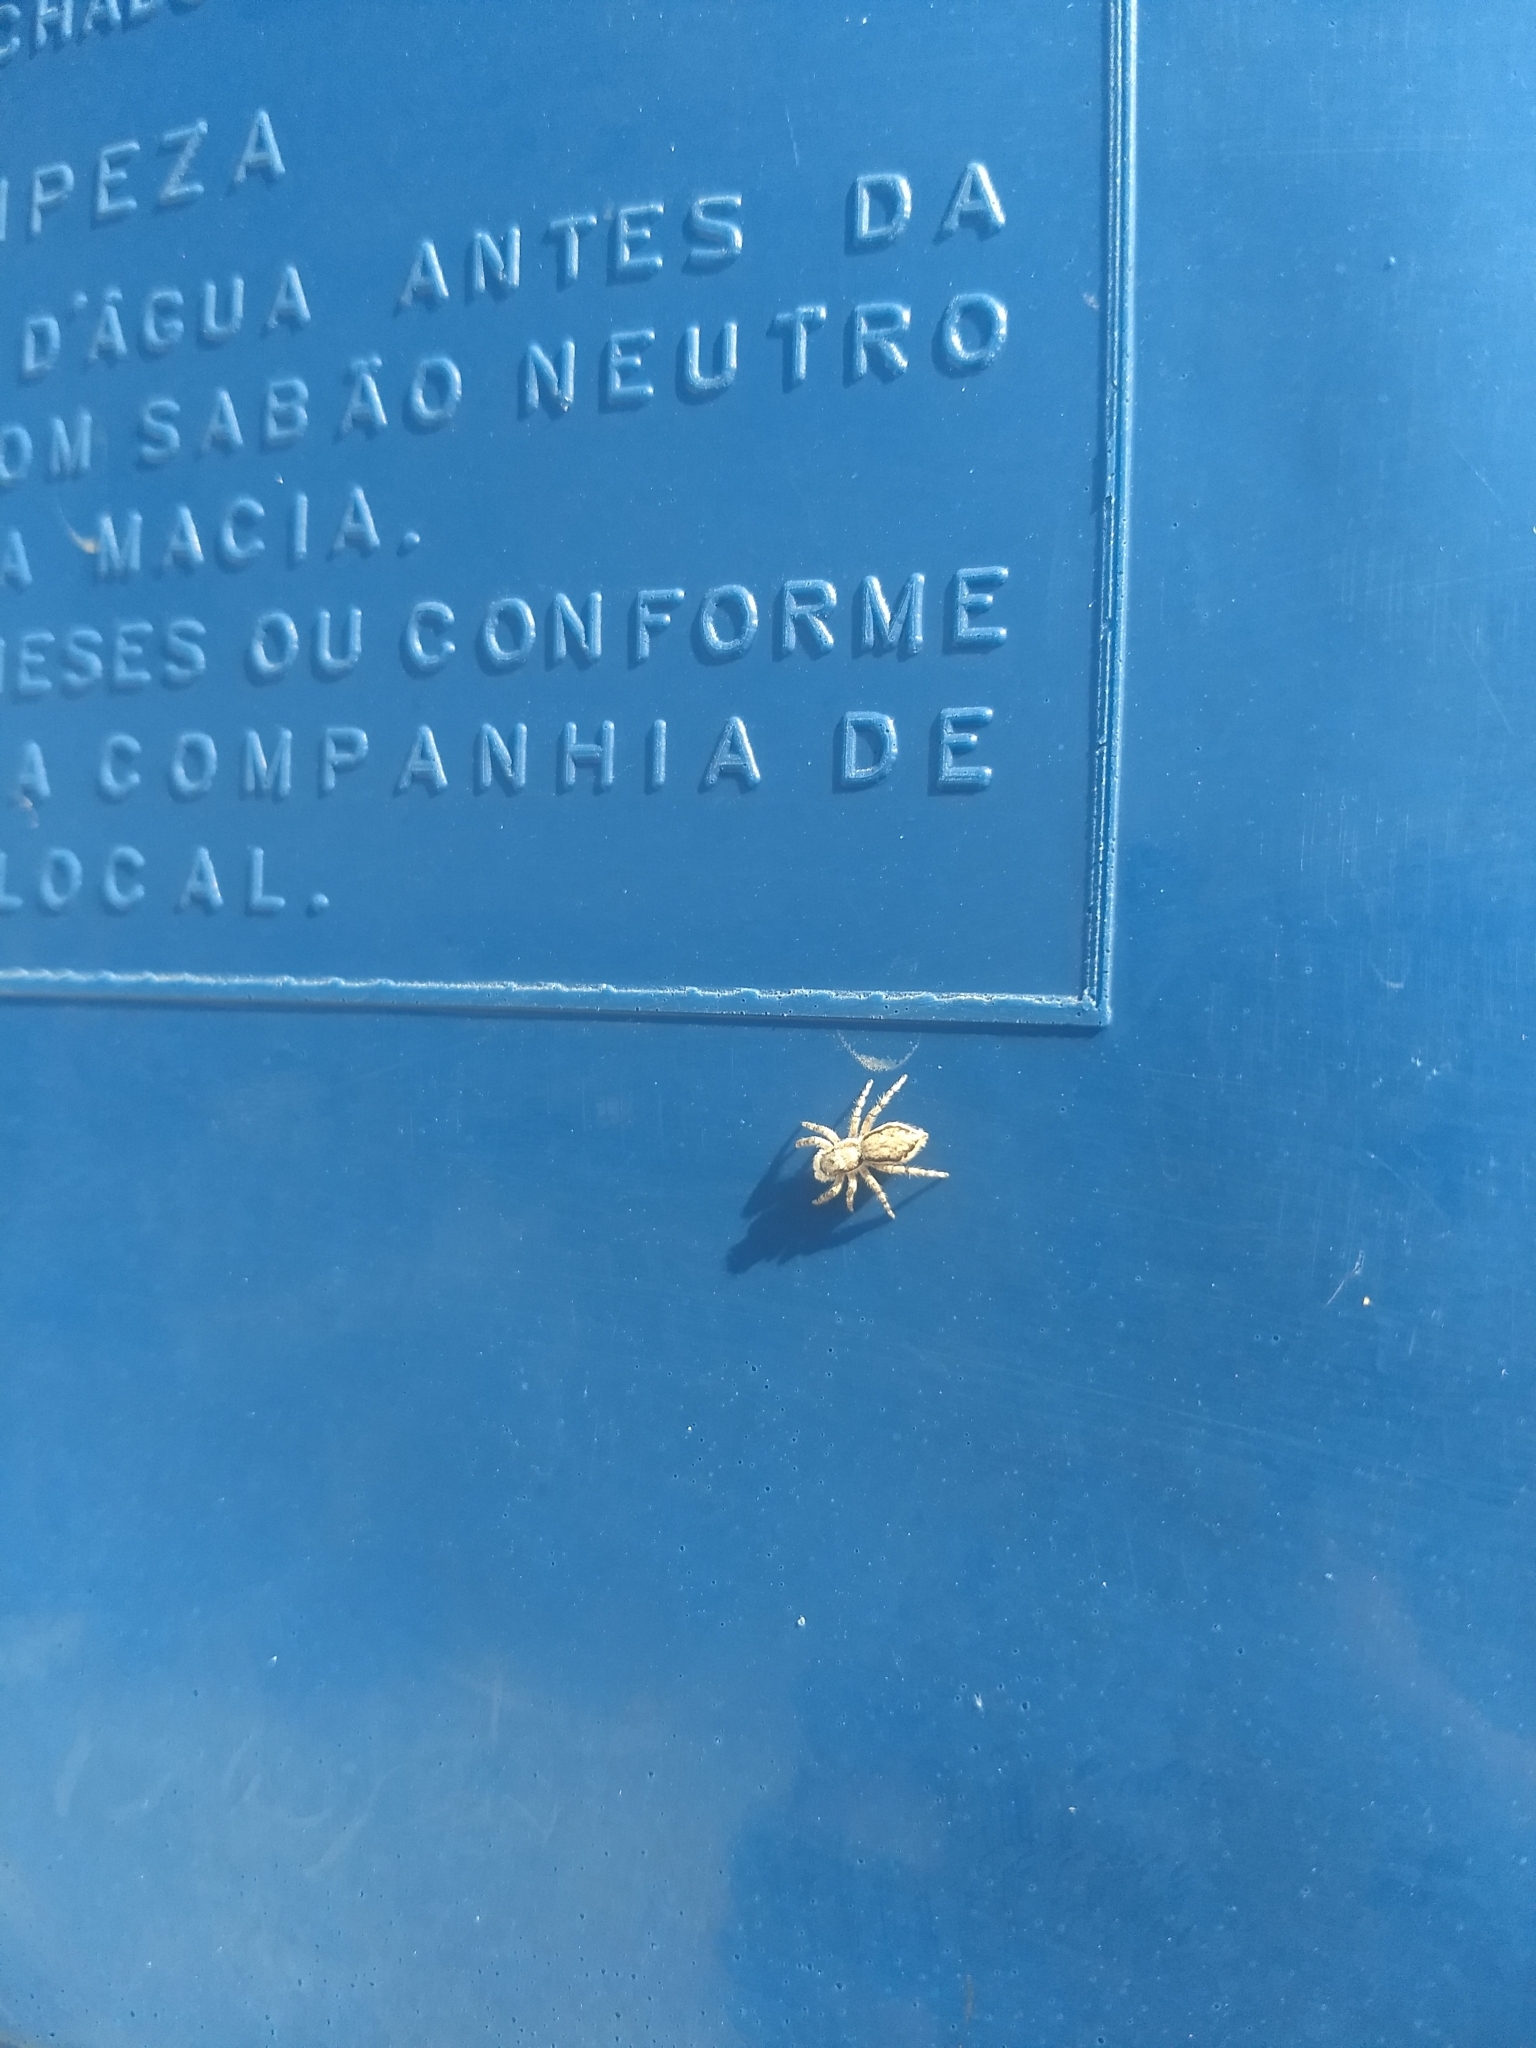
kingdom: Animalia
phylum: Arthropoda
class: Arachnida
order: Araneae
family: Salticidae
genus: Menemerus
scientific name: Menemerus bivittatus
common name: Gray wall jumper
